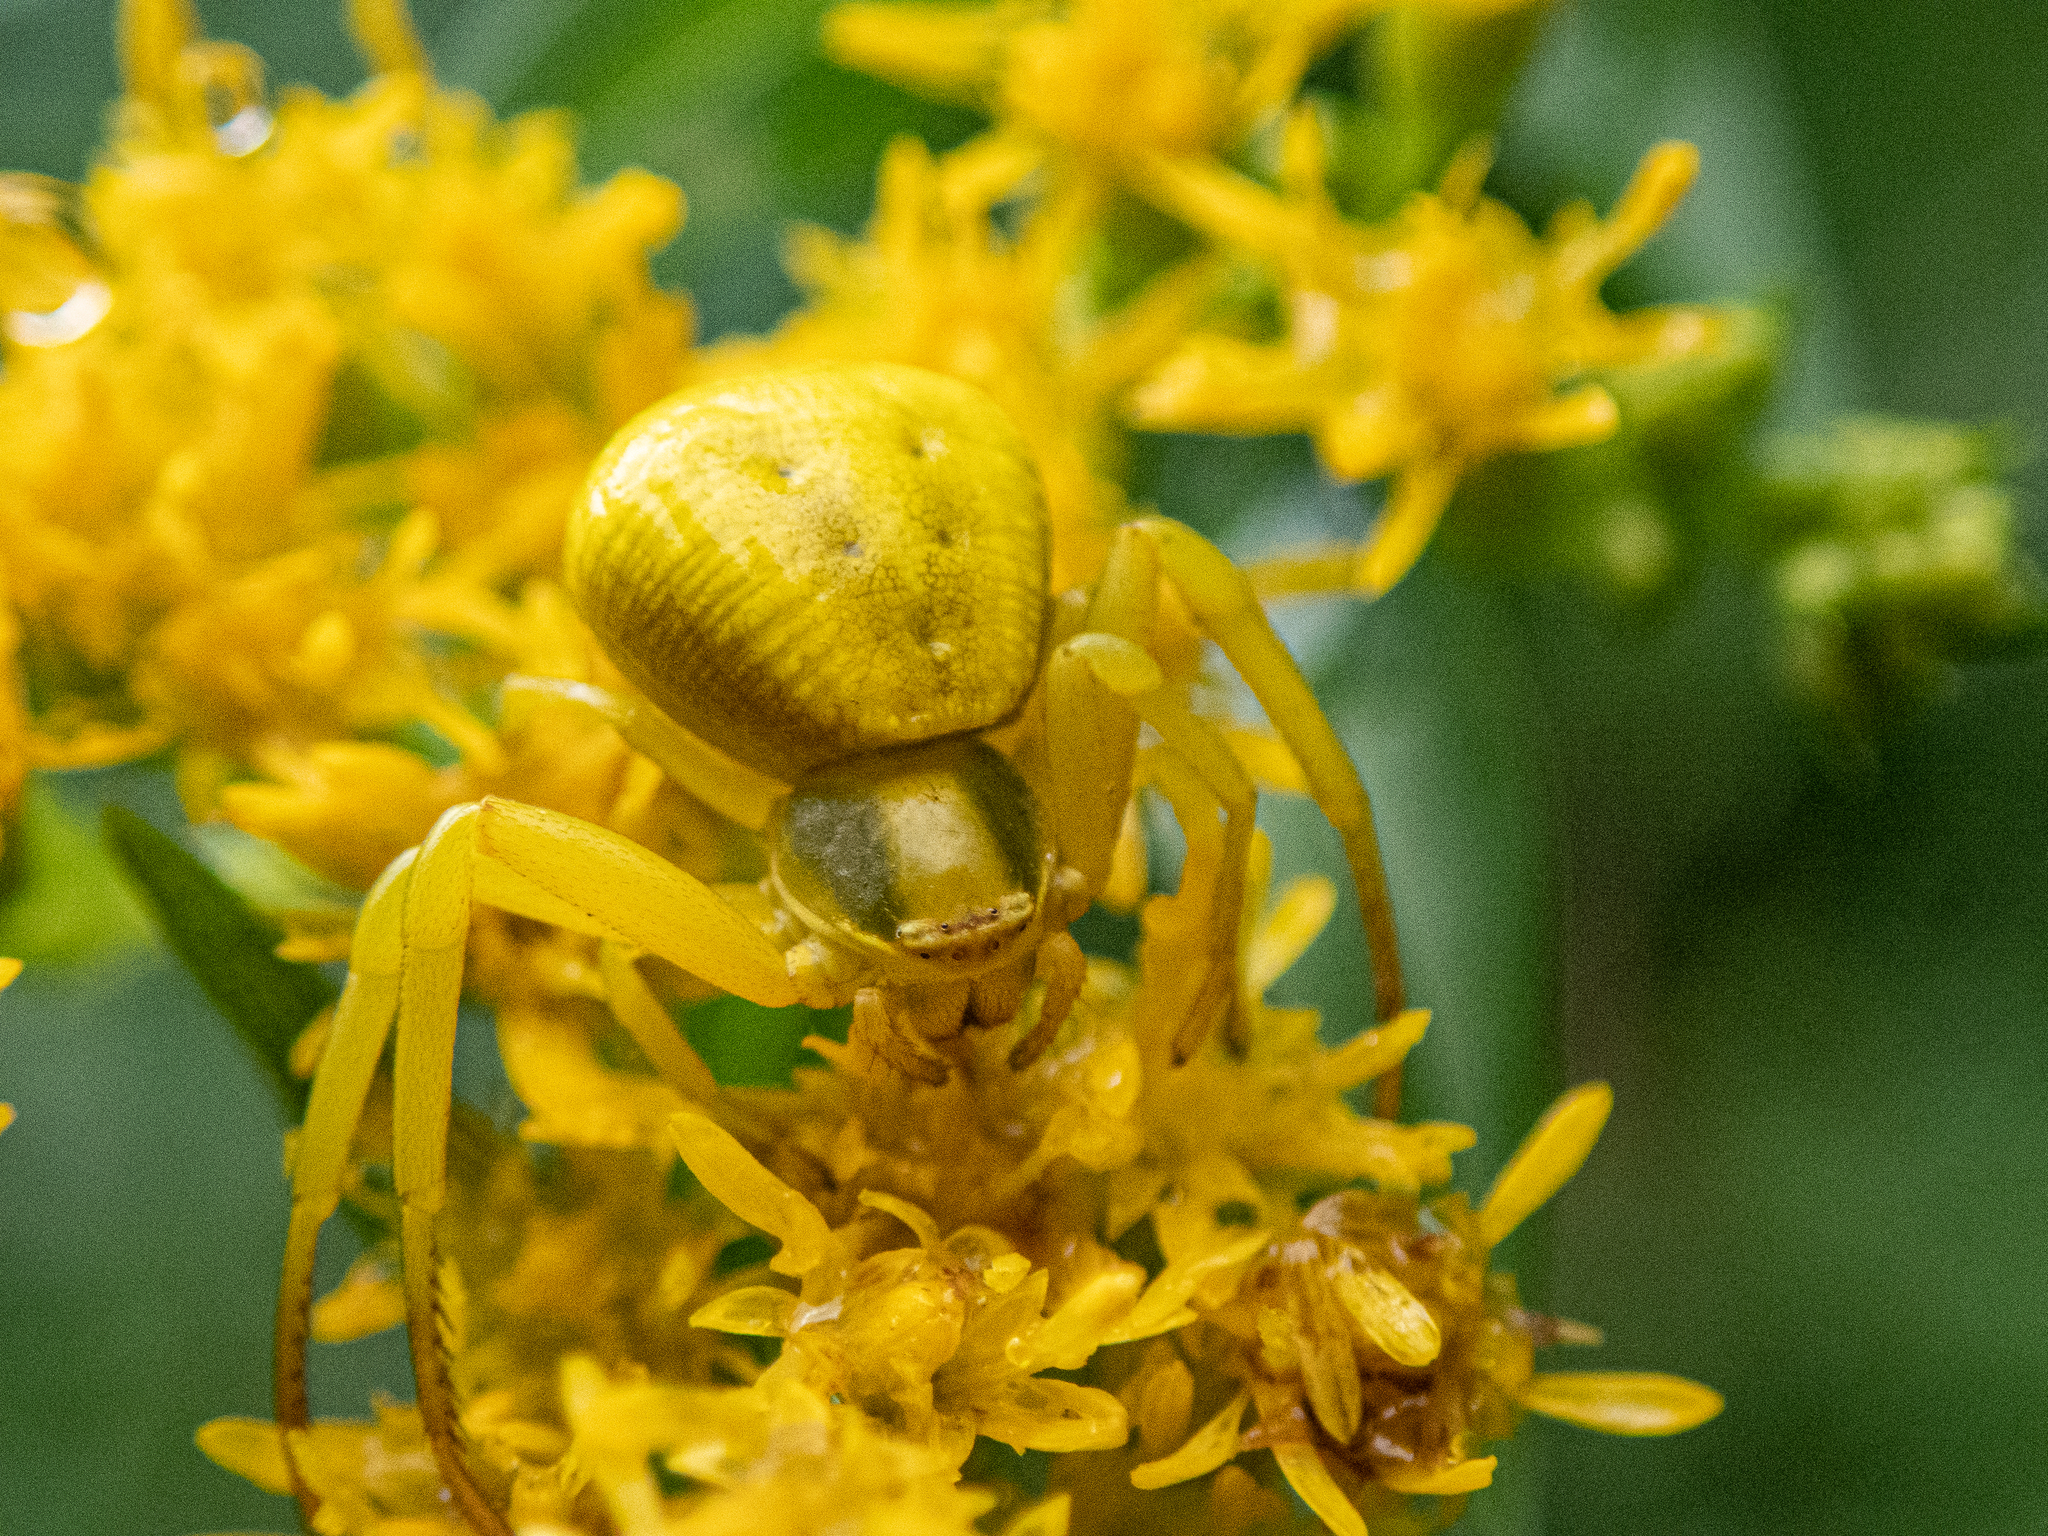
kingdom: Animalia
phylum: Arthropoda
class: Arachnida
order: Araneae
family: Thomisidae
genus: Misumenoides
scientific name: Misumenoides formosipes
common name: White-banded crab spider
